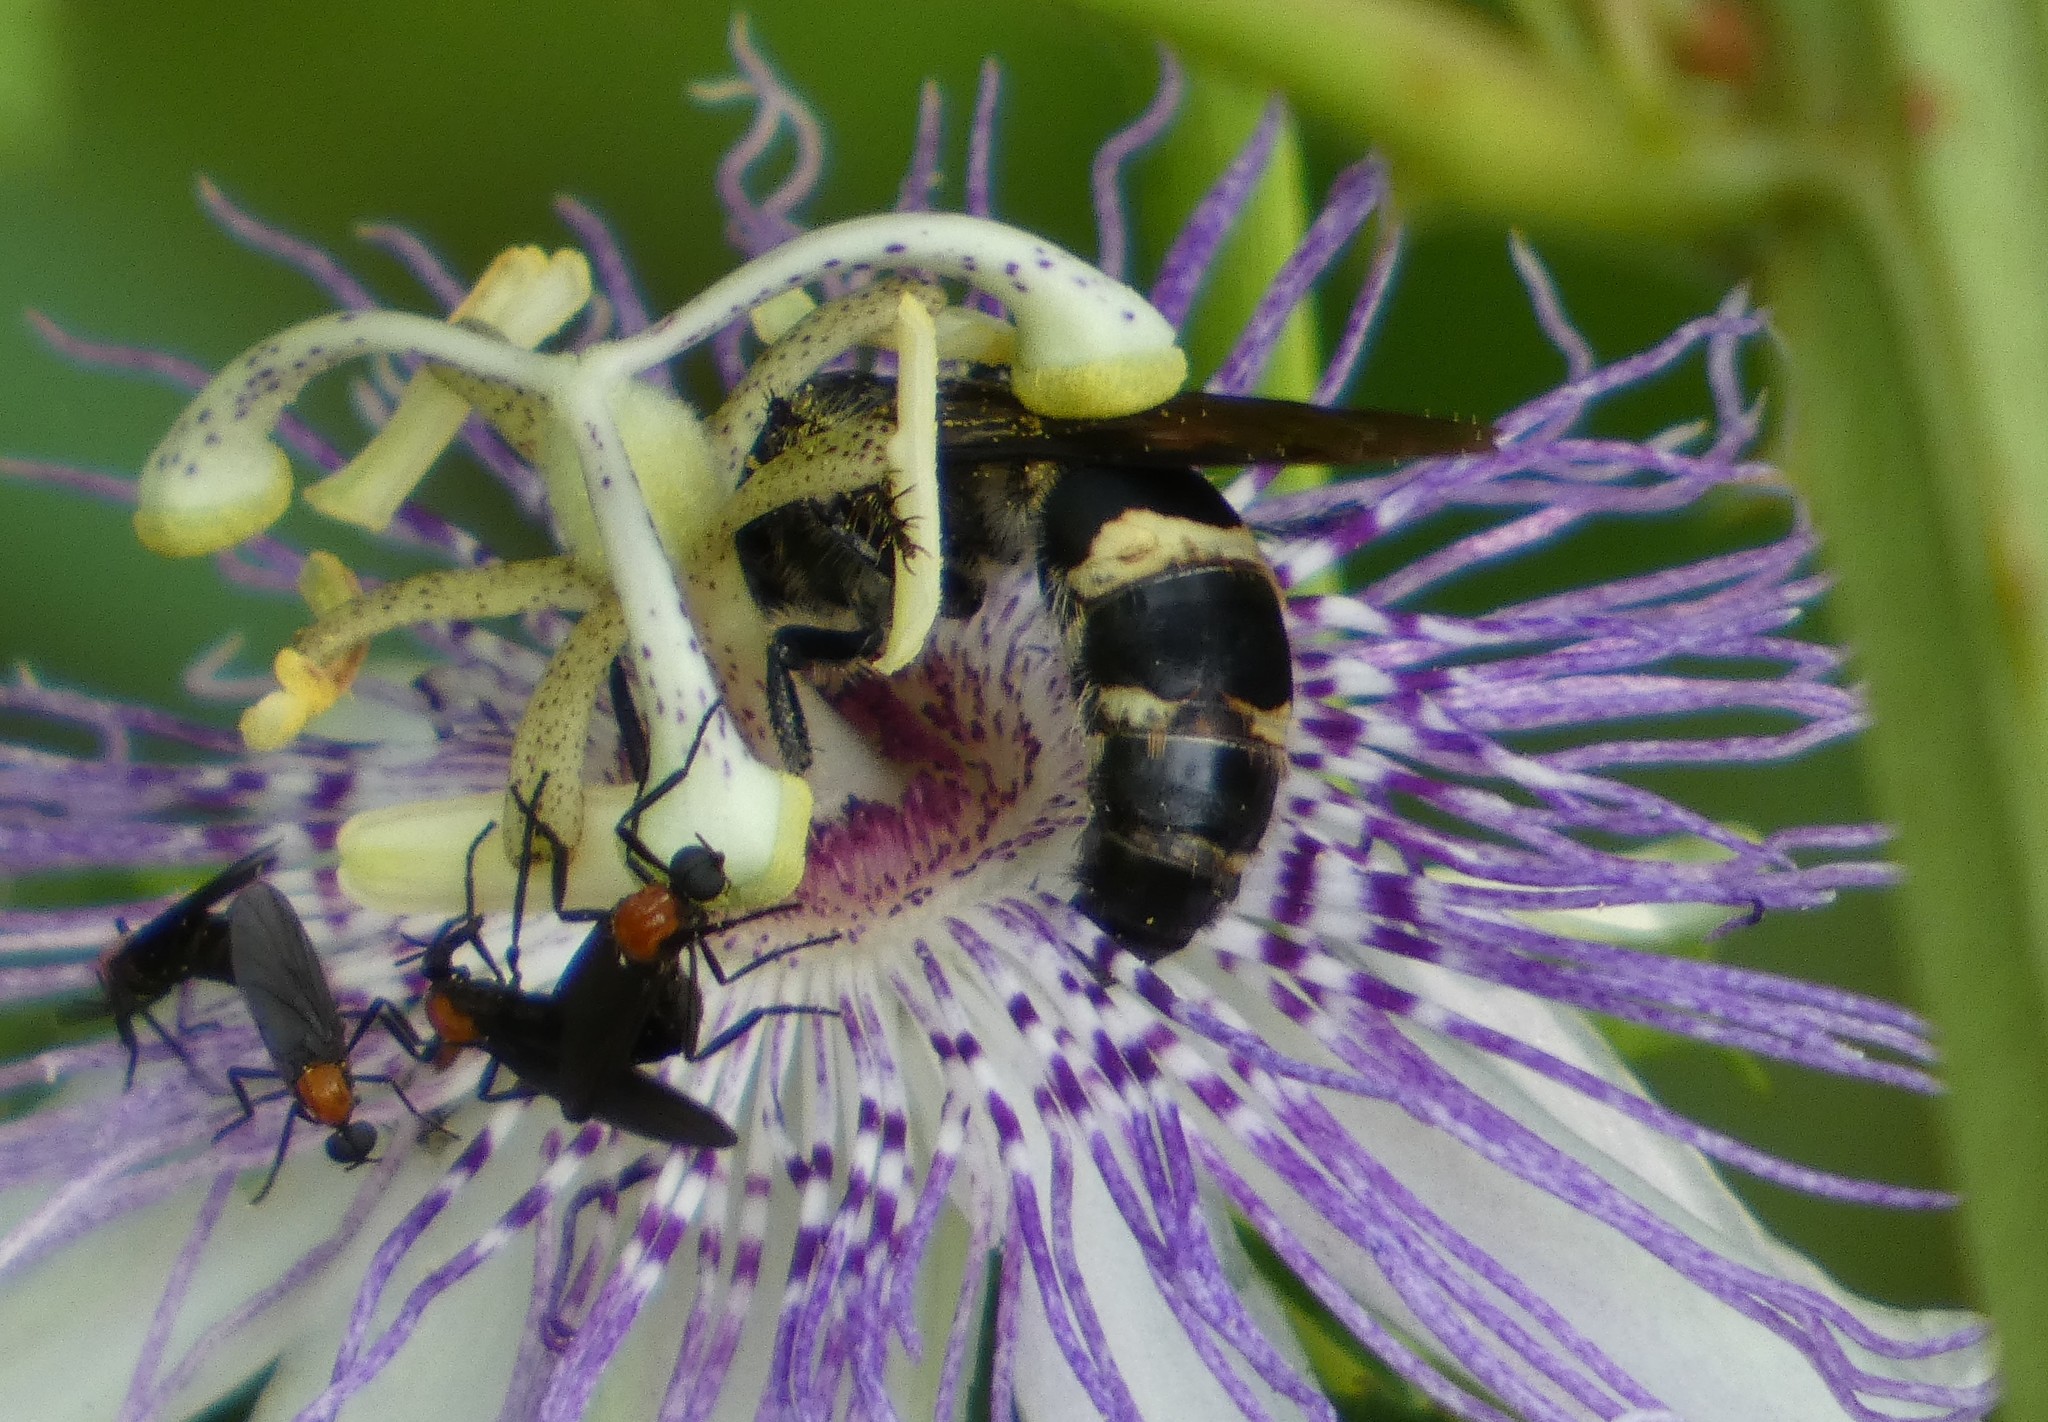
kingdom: Animalia
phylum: Arthropoda
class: Insecta
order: Hymenoptera
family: Scoliidae
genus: Dielis
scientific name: Dielis
